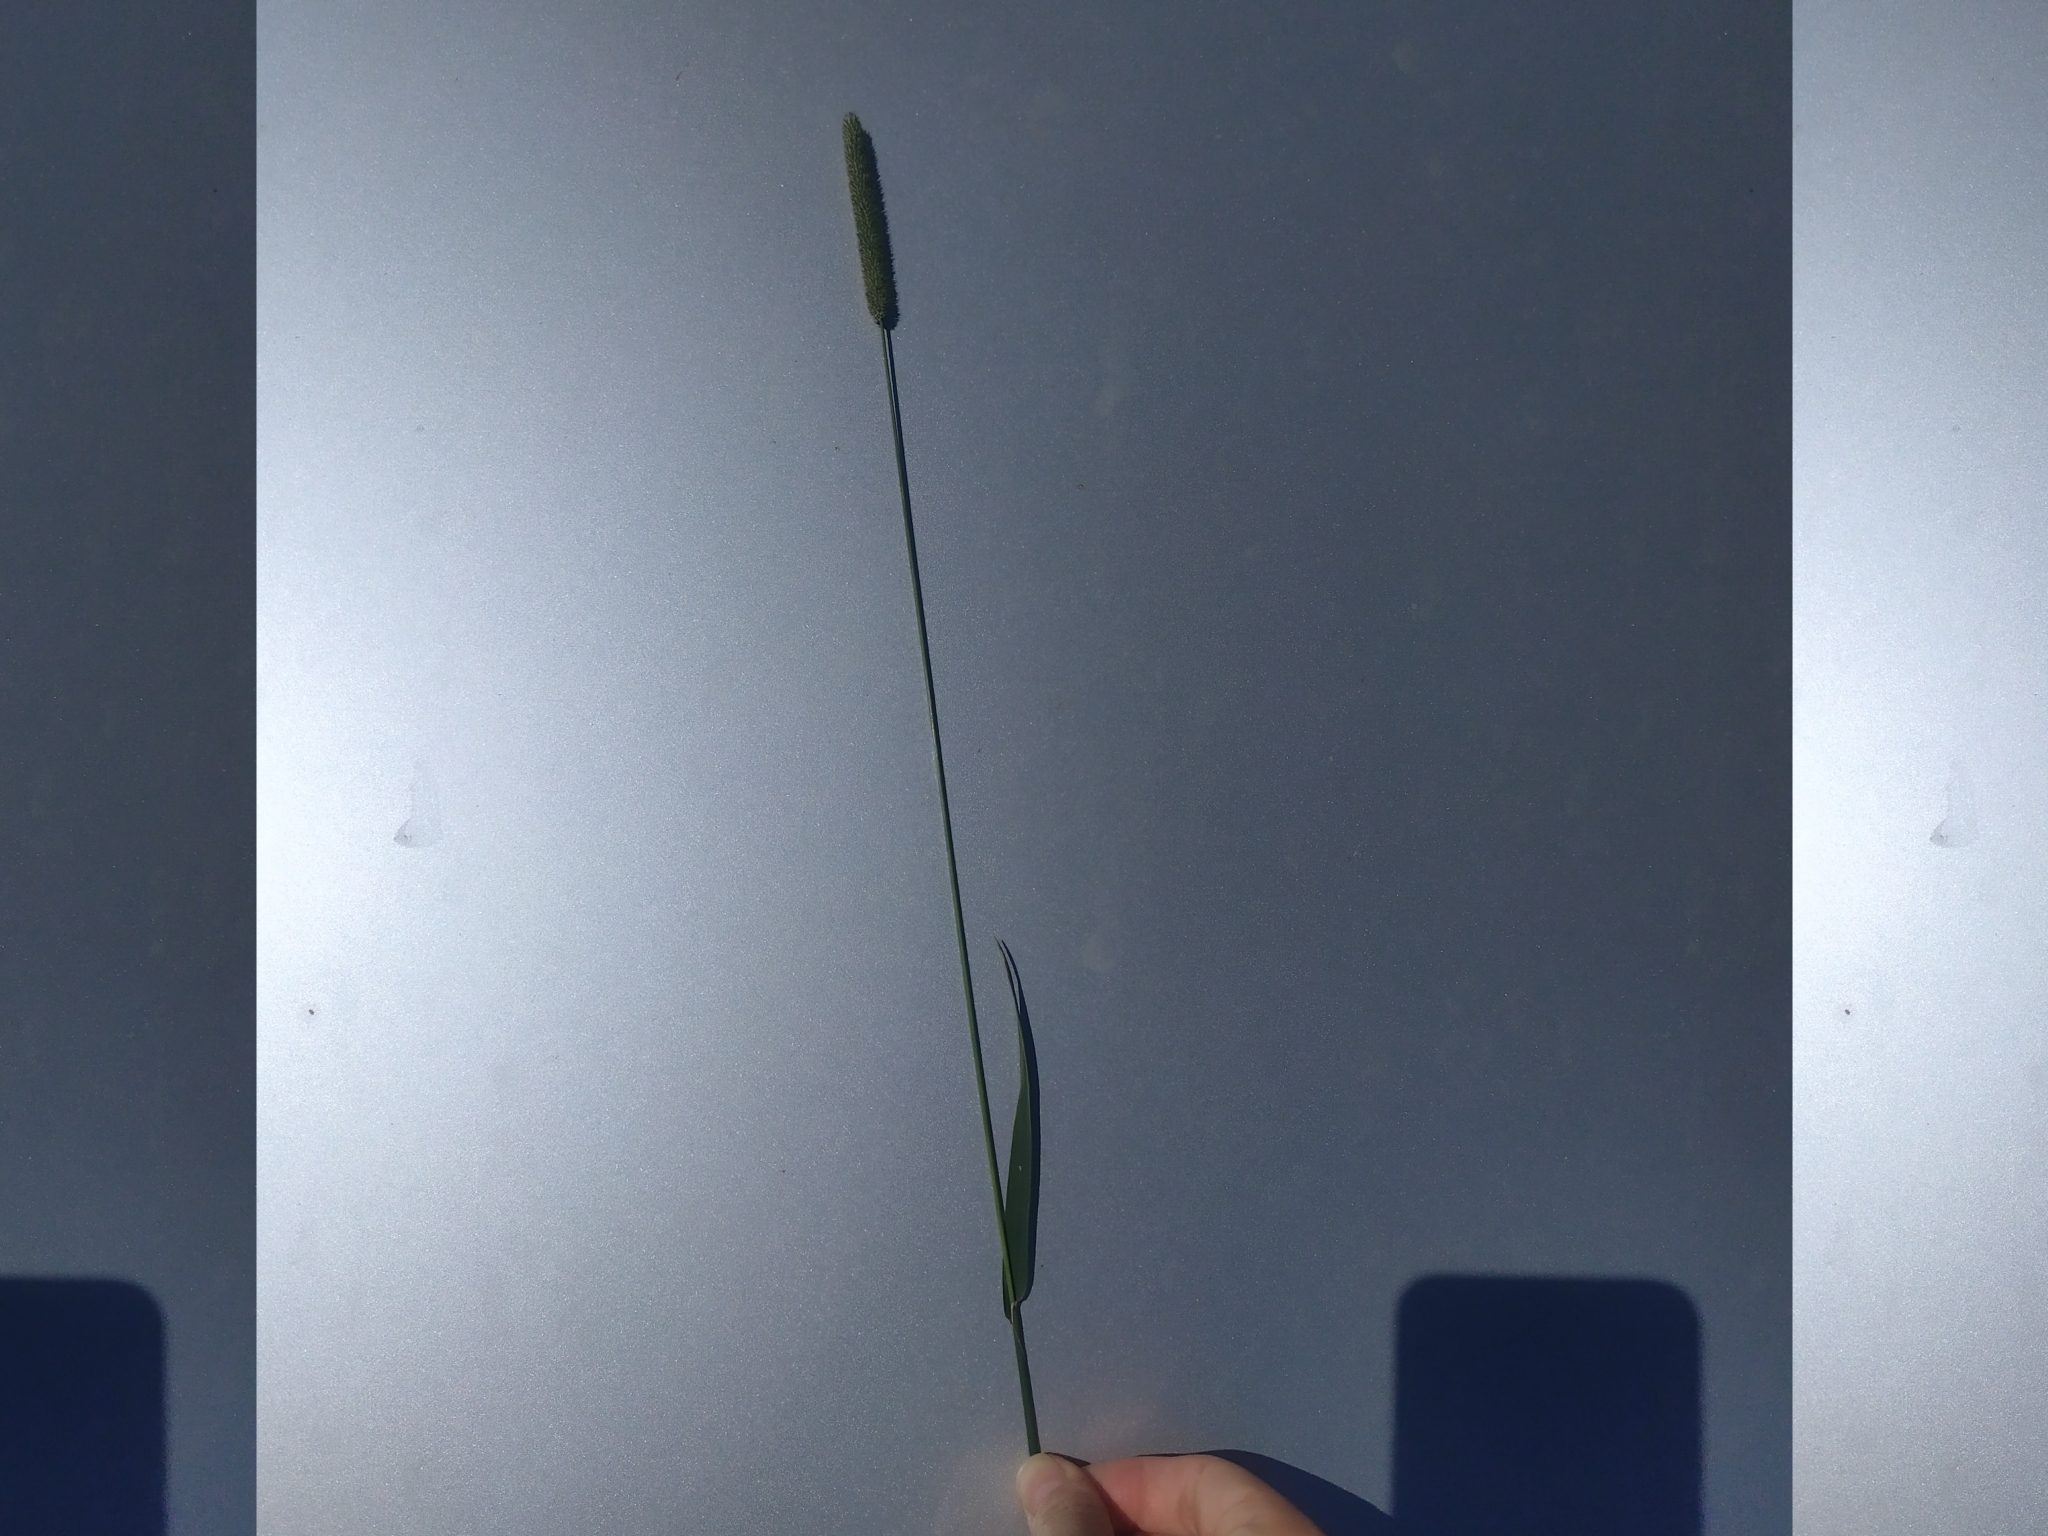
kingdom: Plantae
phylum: Tracheophyta
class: Liliopsida
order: Poales
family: Poaceae
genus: Phleum
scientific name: Phleum pratense
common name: Timothy grass
